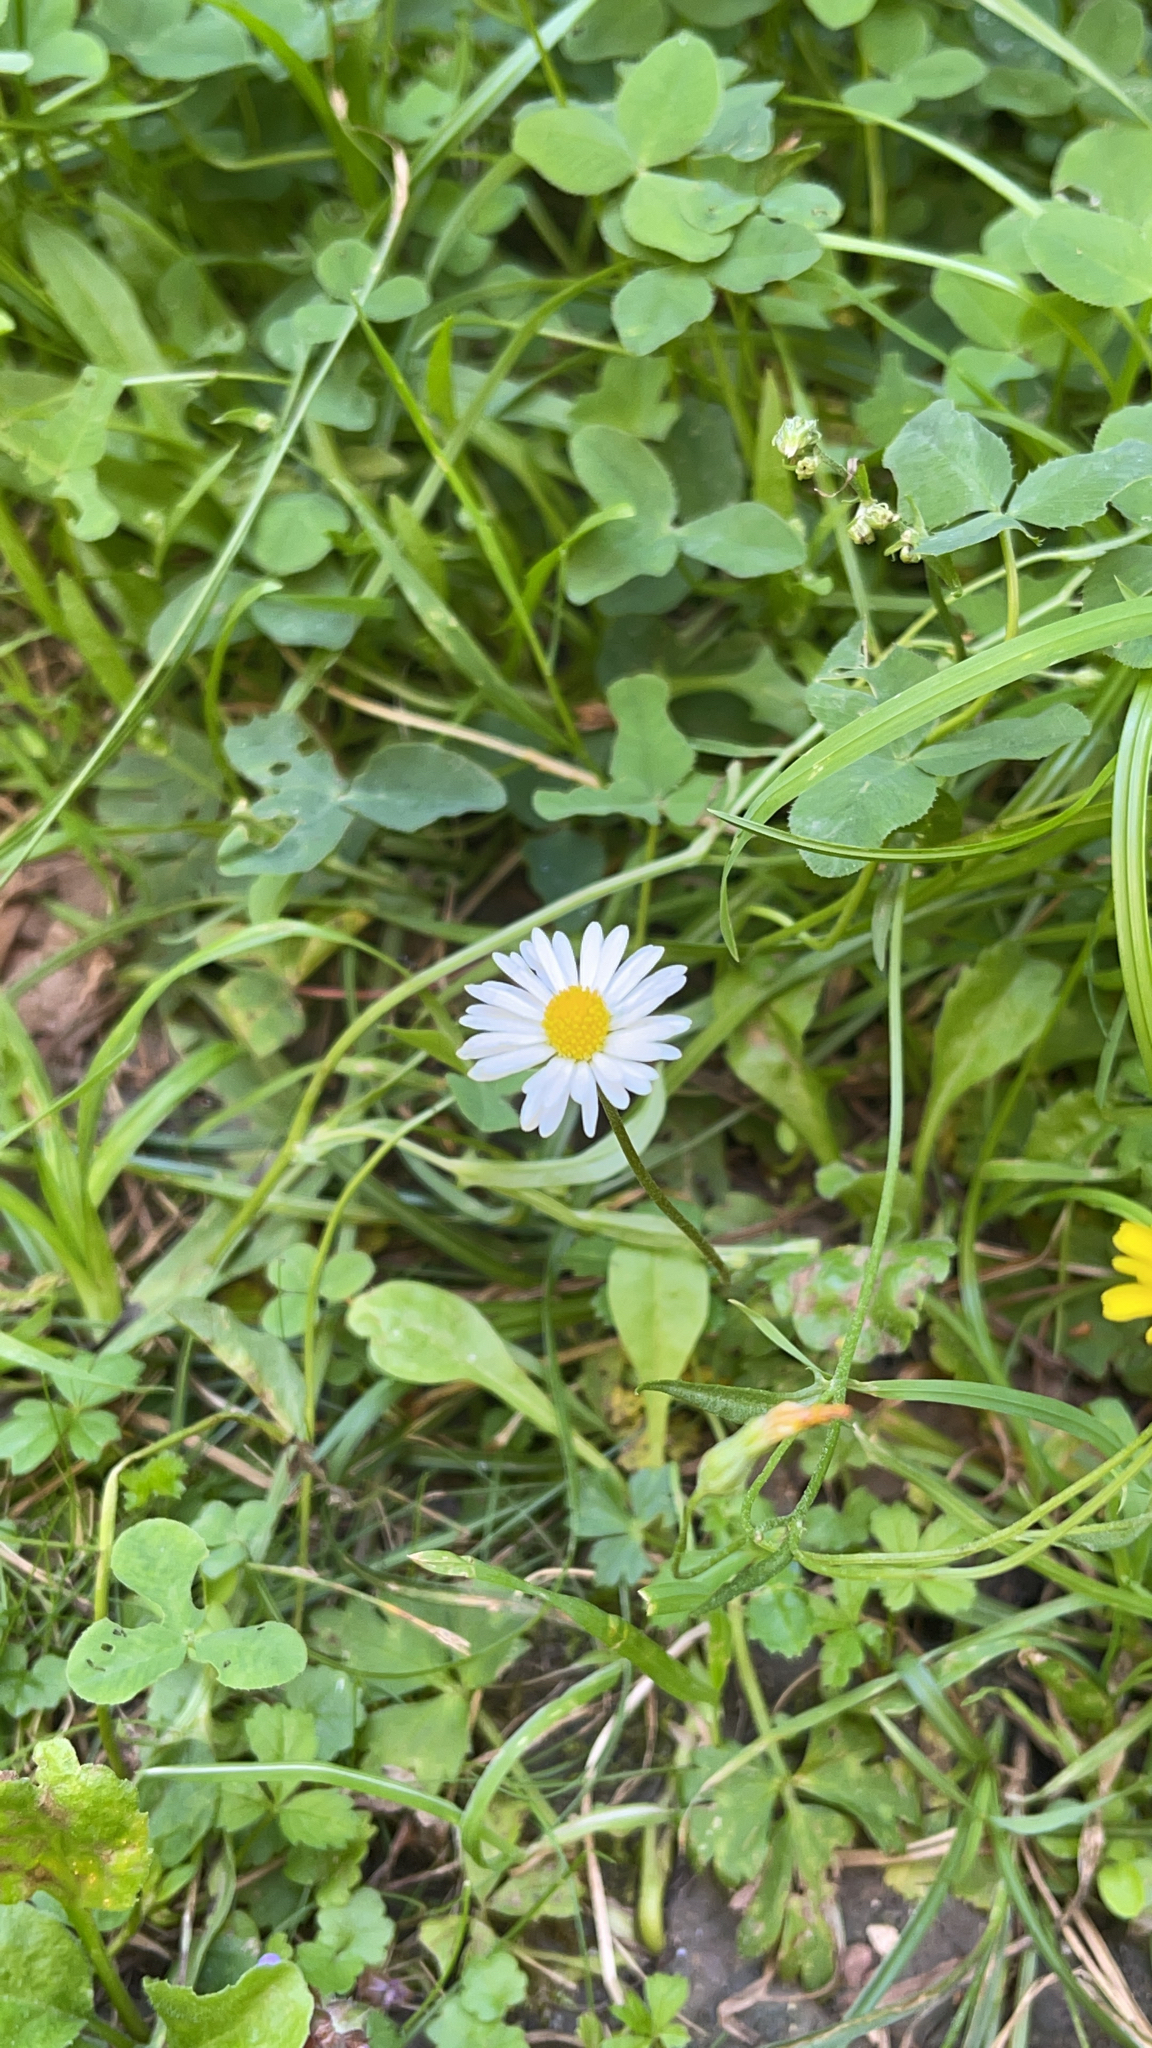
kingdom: Plantae
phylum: Tracheophyta
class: Magnoliopsida
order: Asterales
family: Asteraceae
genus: Bellis
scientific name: Bellis perennis
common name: Lawndaisy
